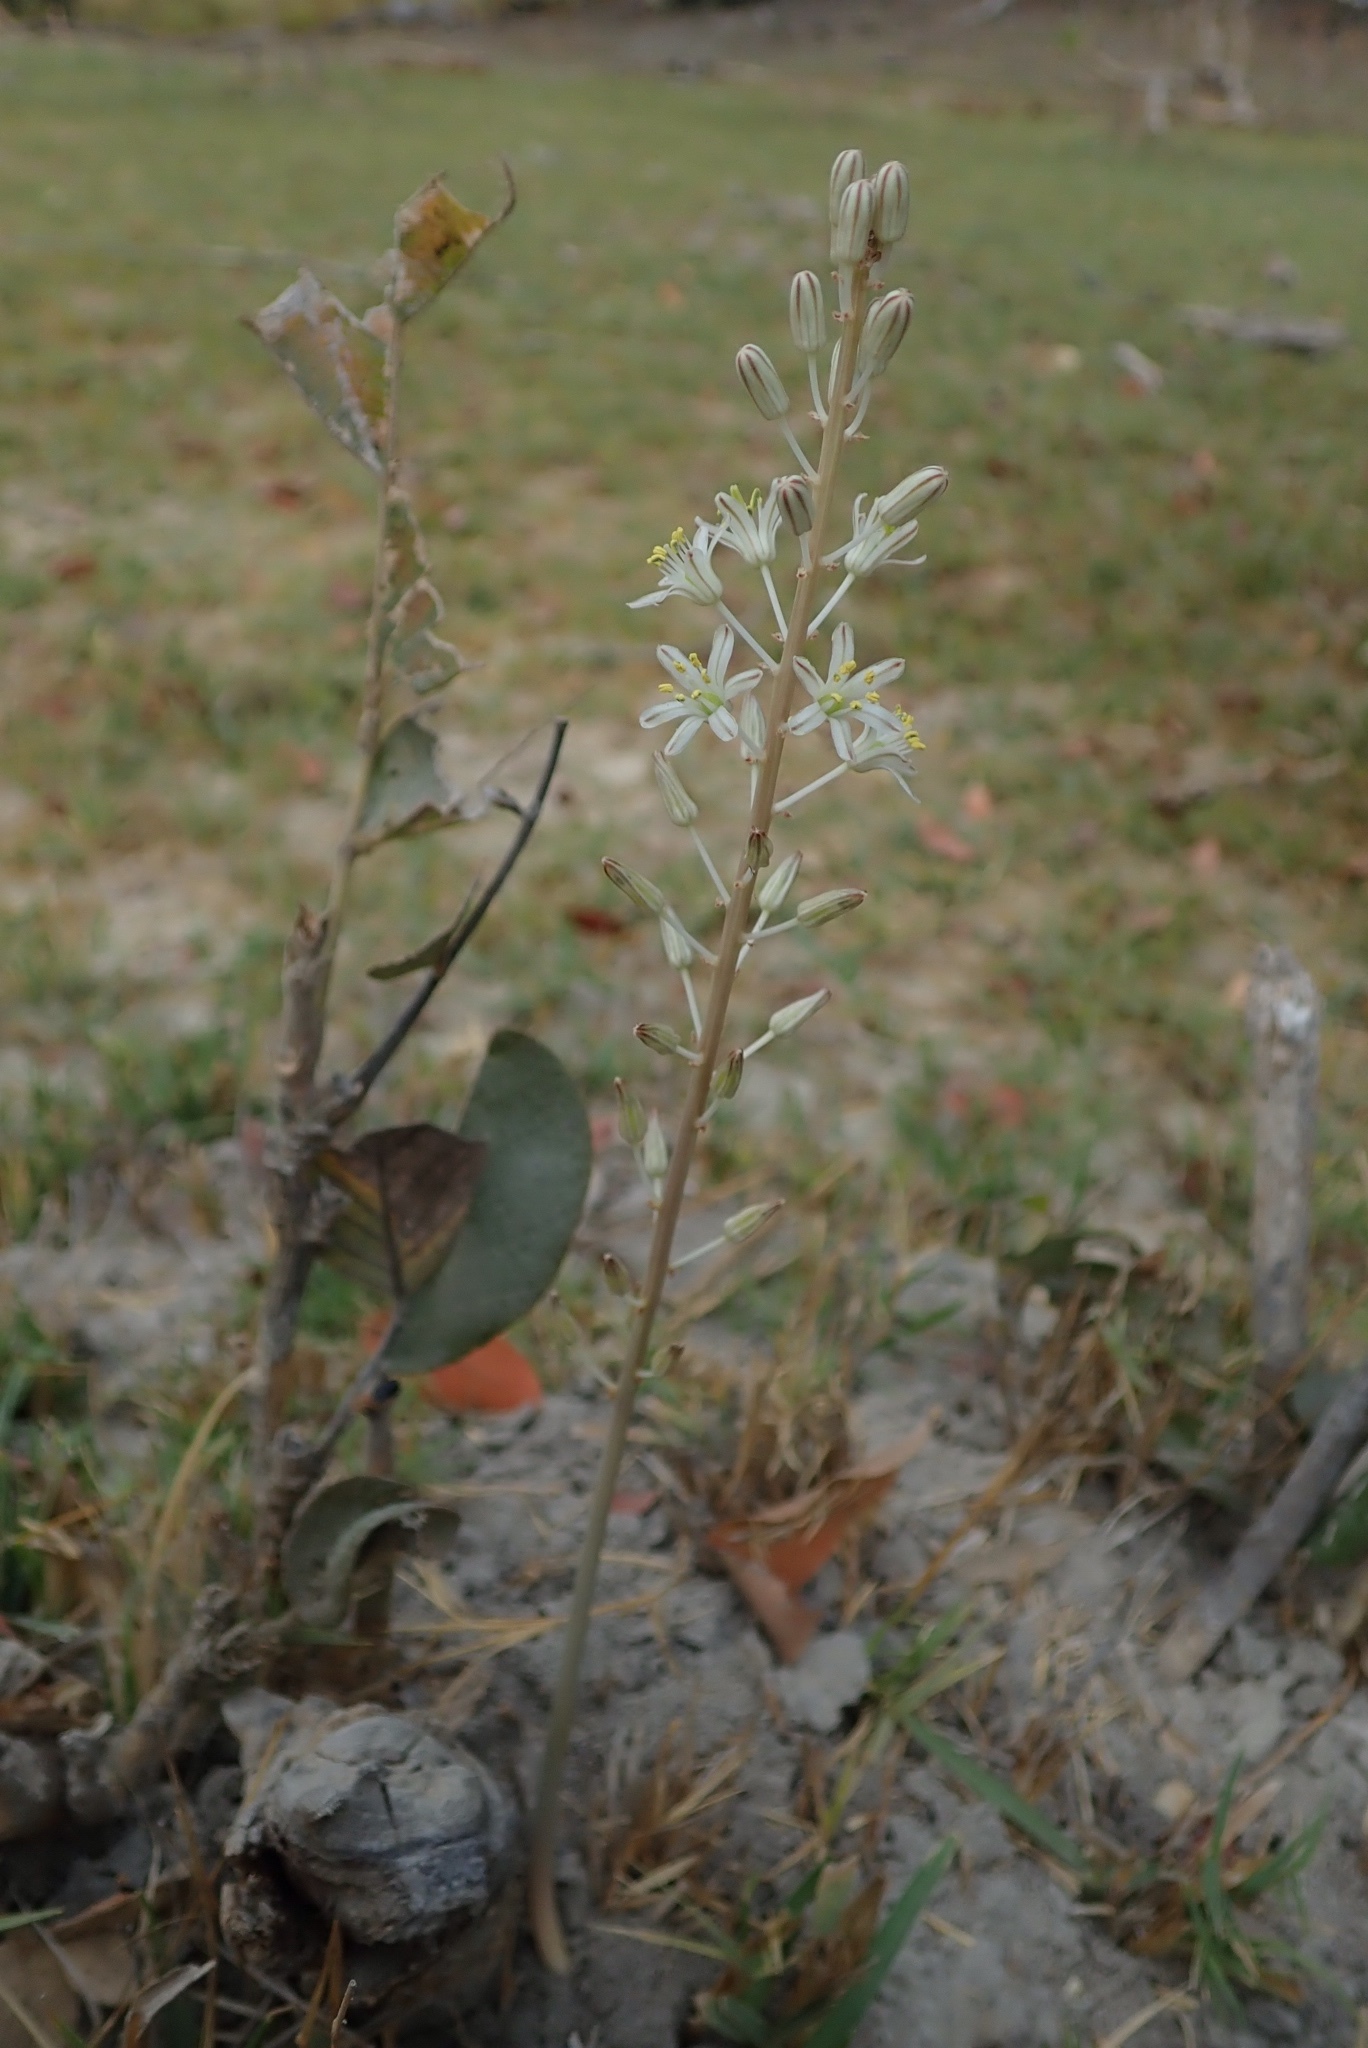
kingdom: Plantae
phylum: Tracheophyta
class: Liliopsida
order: Asparagales
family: Asparagaceae
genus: Drimia
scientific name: Drimia sanguinea
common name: Transvaal slangkop
